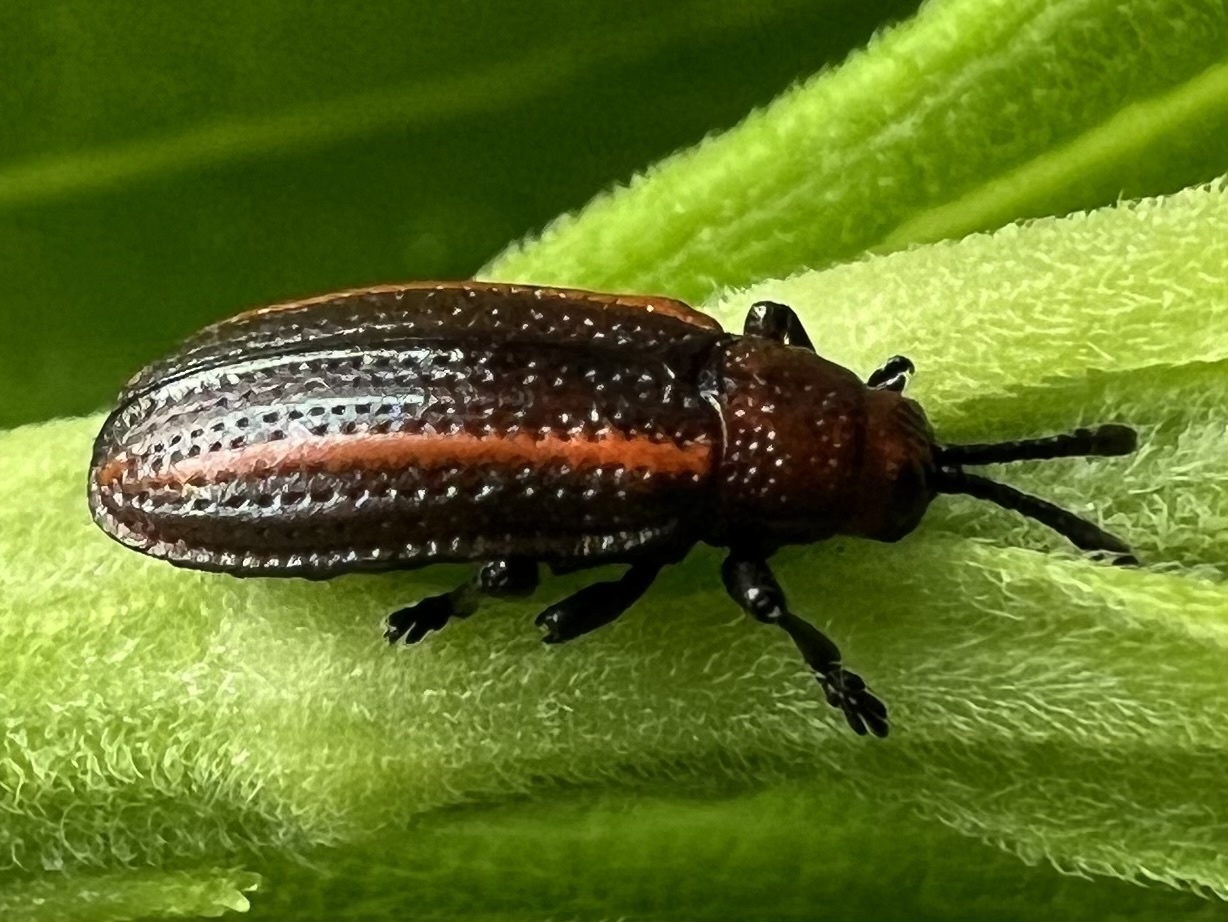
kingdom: Animalia
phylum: Arthropoda
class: Insecta
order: Coleoptera
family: Chrysomelidae
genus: Microrhopala
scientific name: Microrhopala vittata
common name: Goldenrod leaf miner beetle
